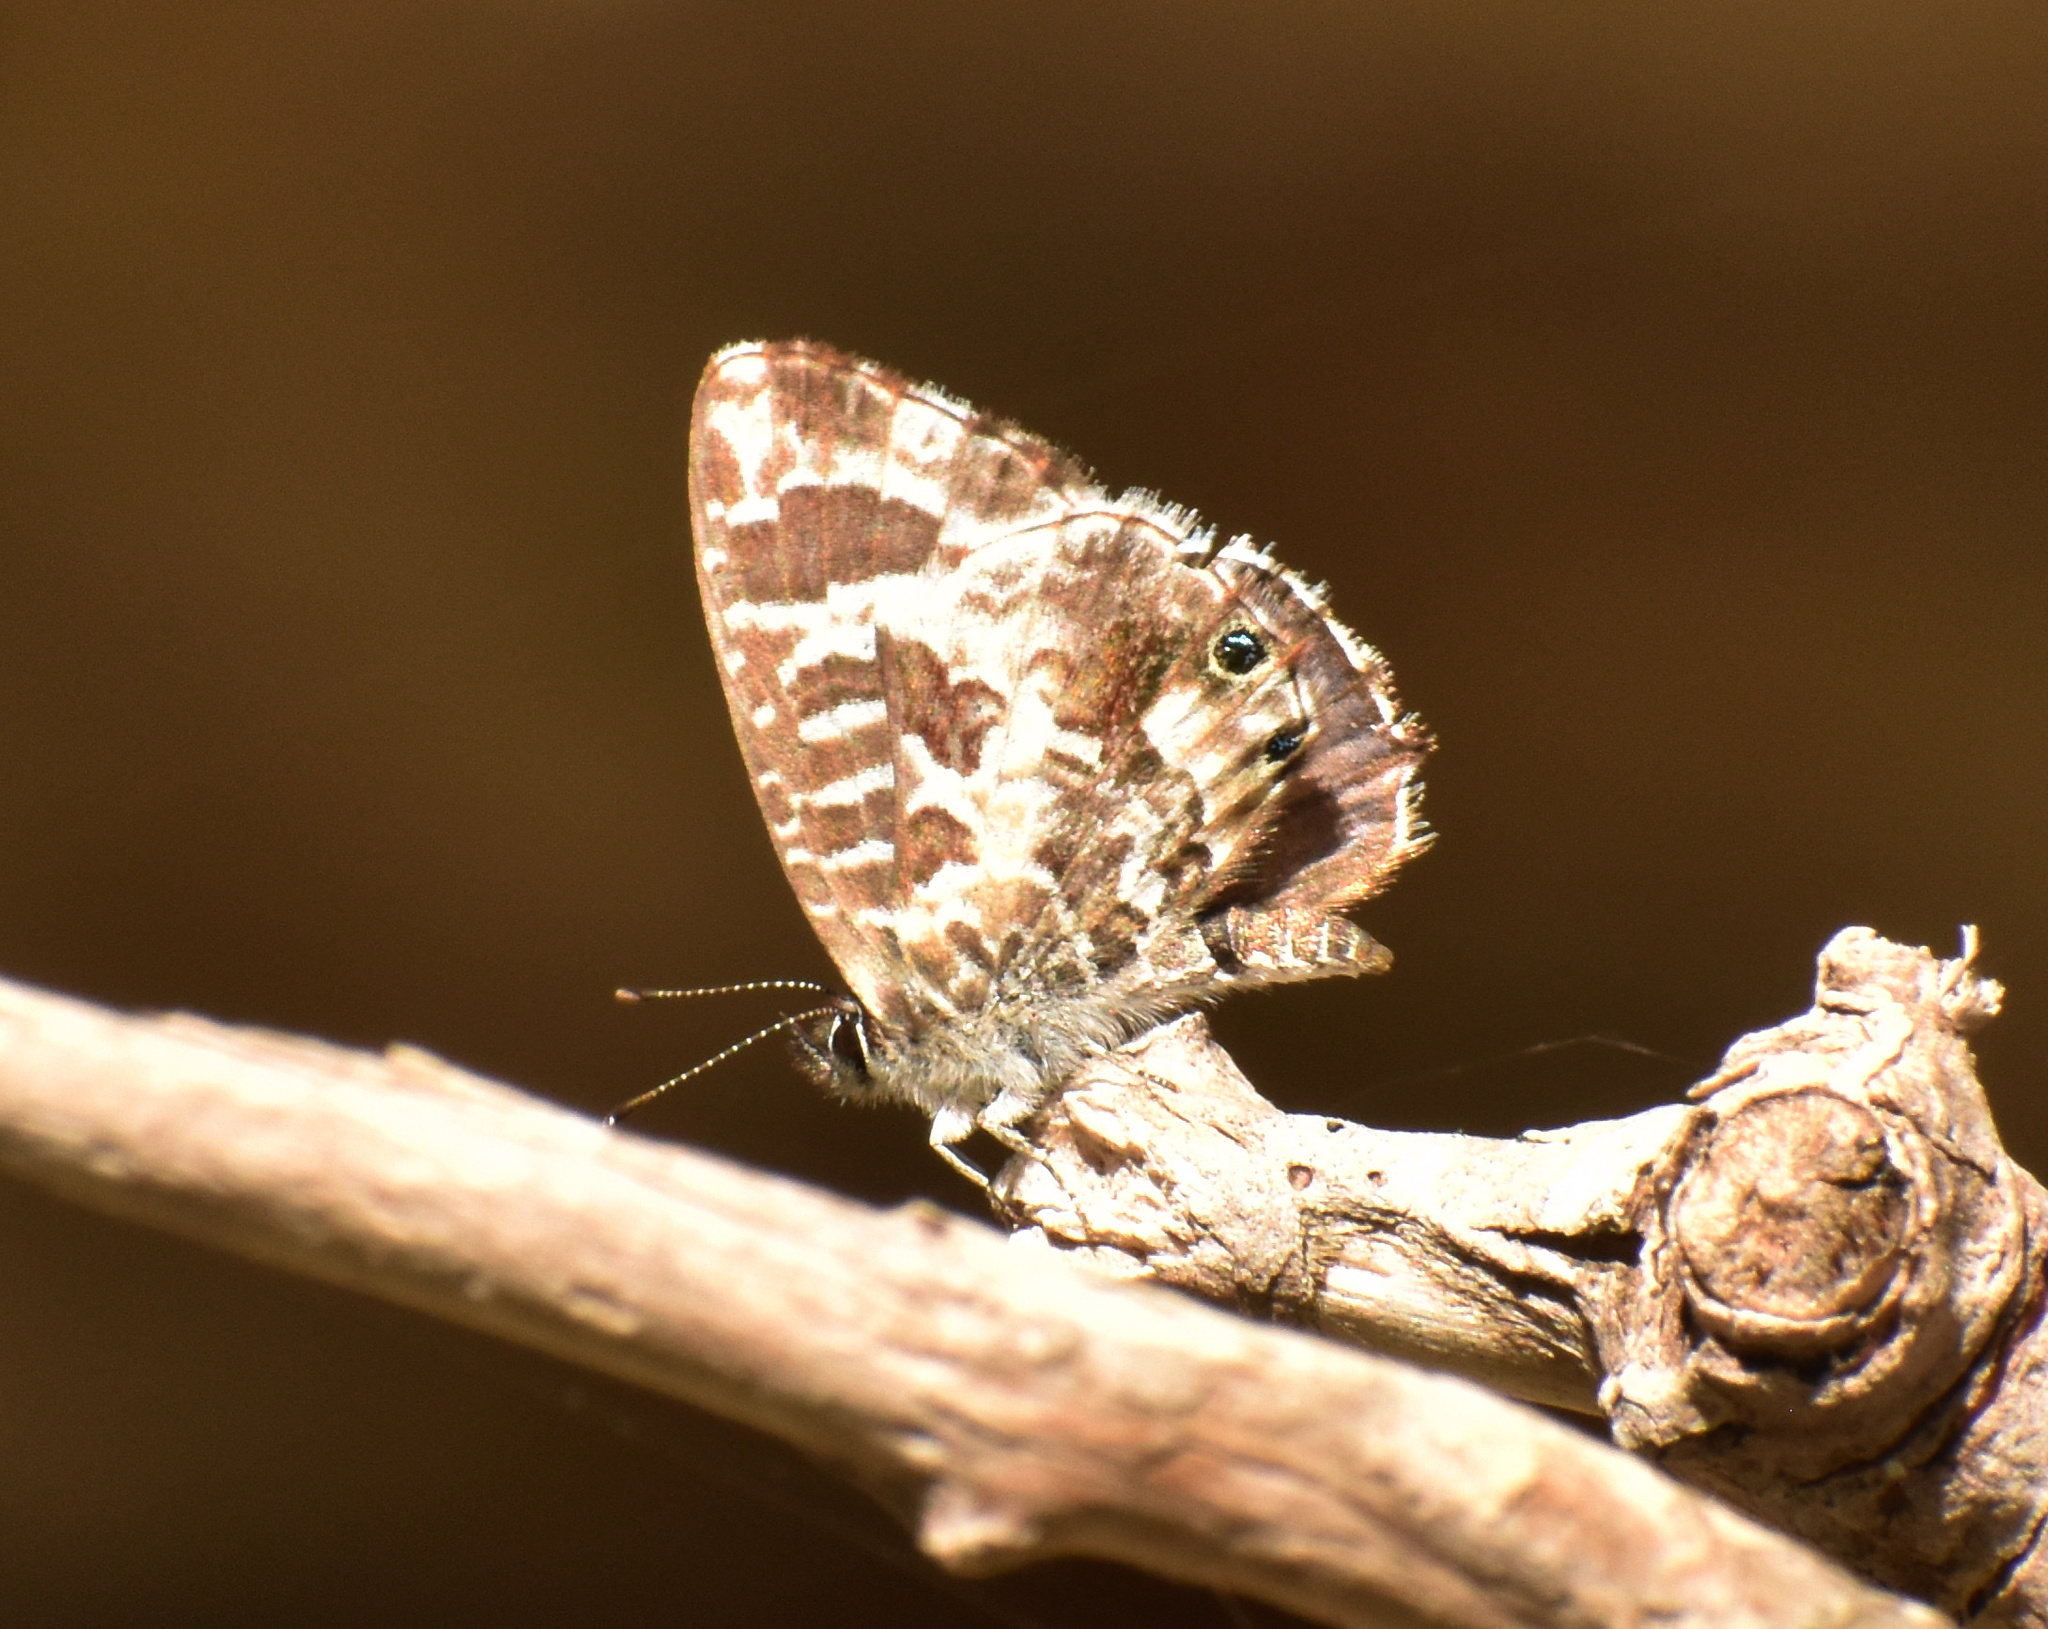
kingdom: Animalia
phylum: Arthropoda
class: Insecta
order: Lepidoptera
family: Lycaenidae
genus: Cacyreus
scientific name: Cacyreus lingeus
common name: Bush bronze
